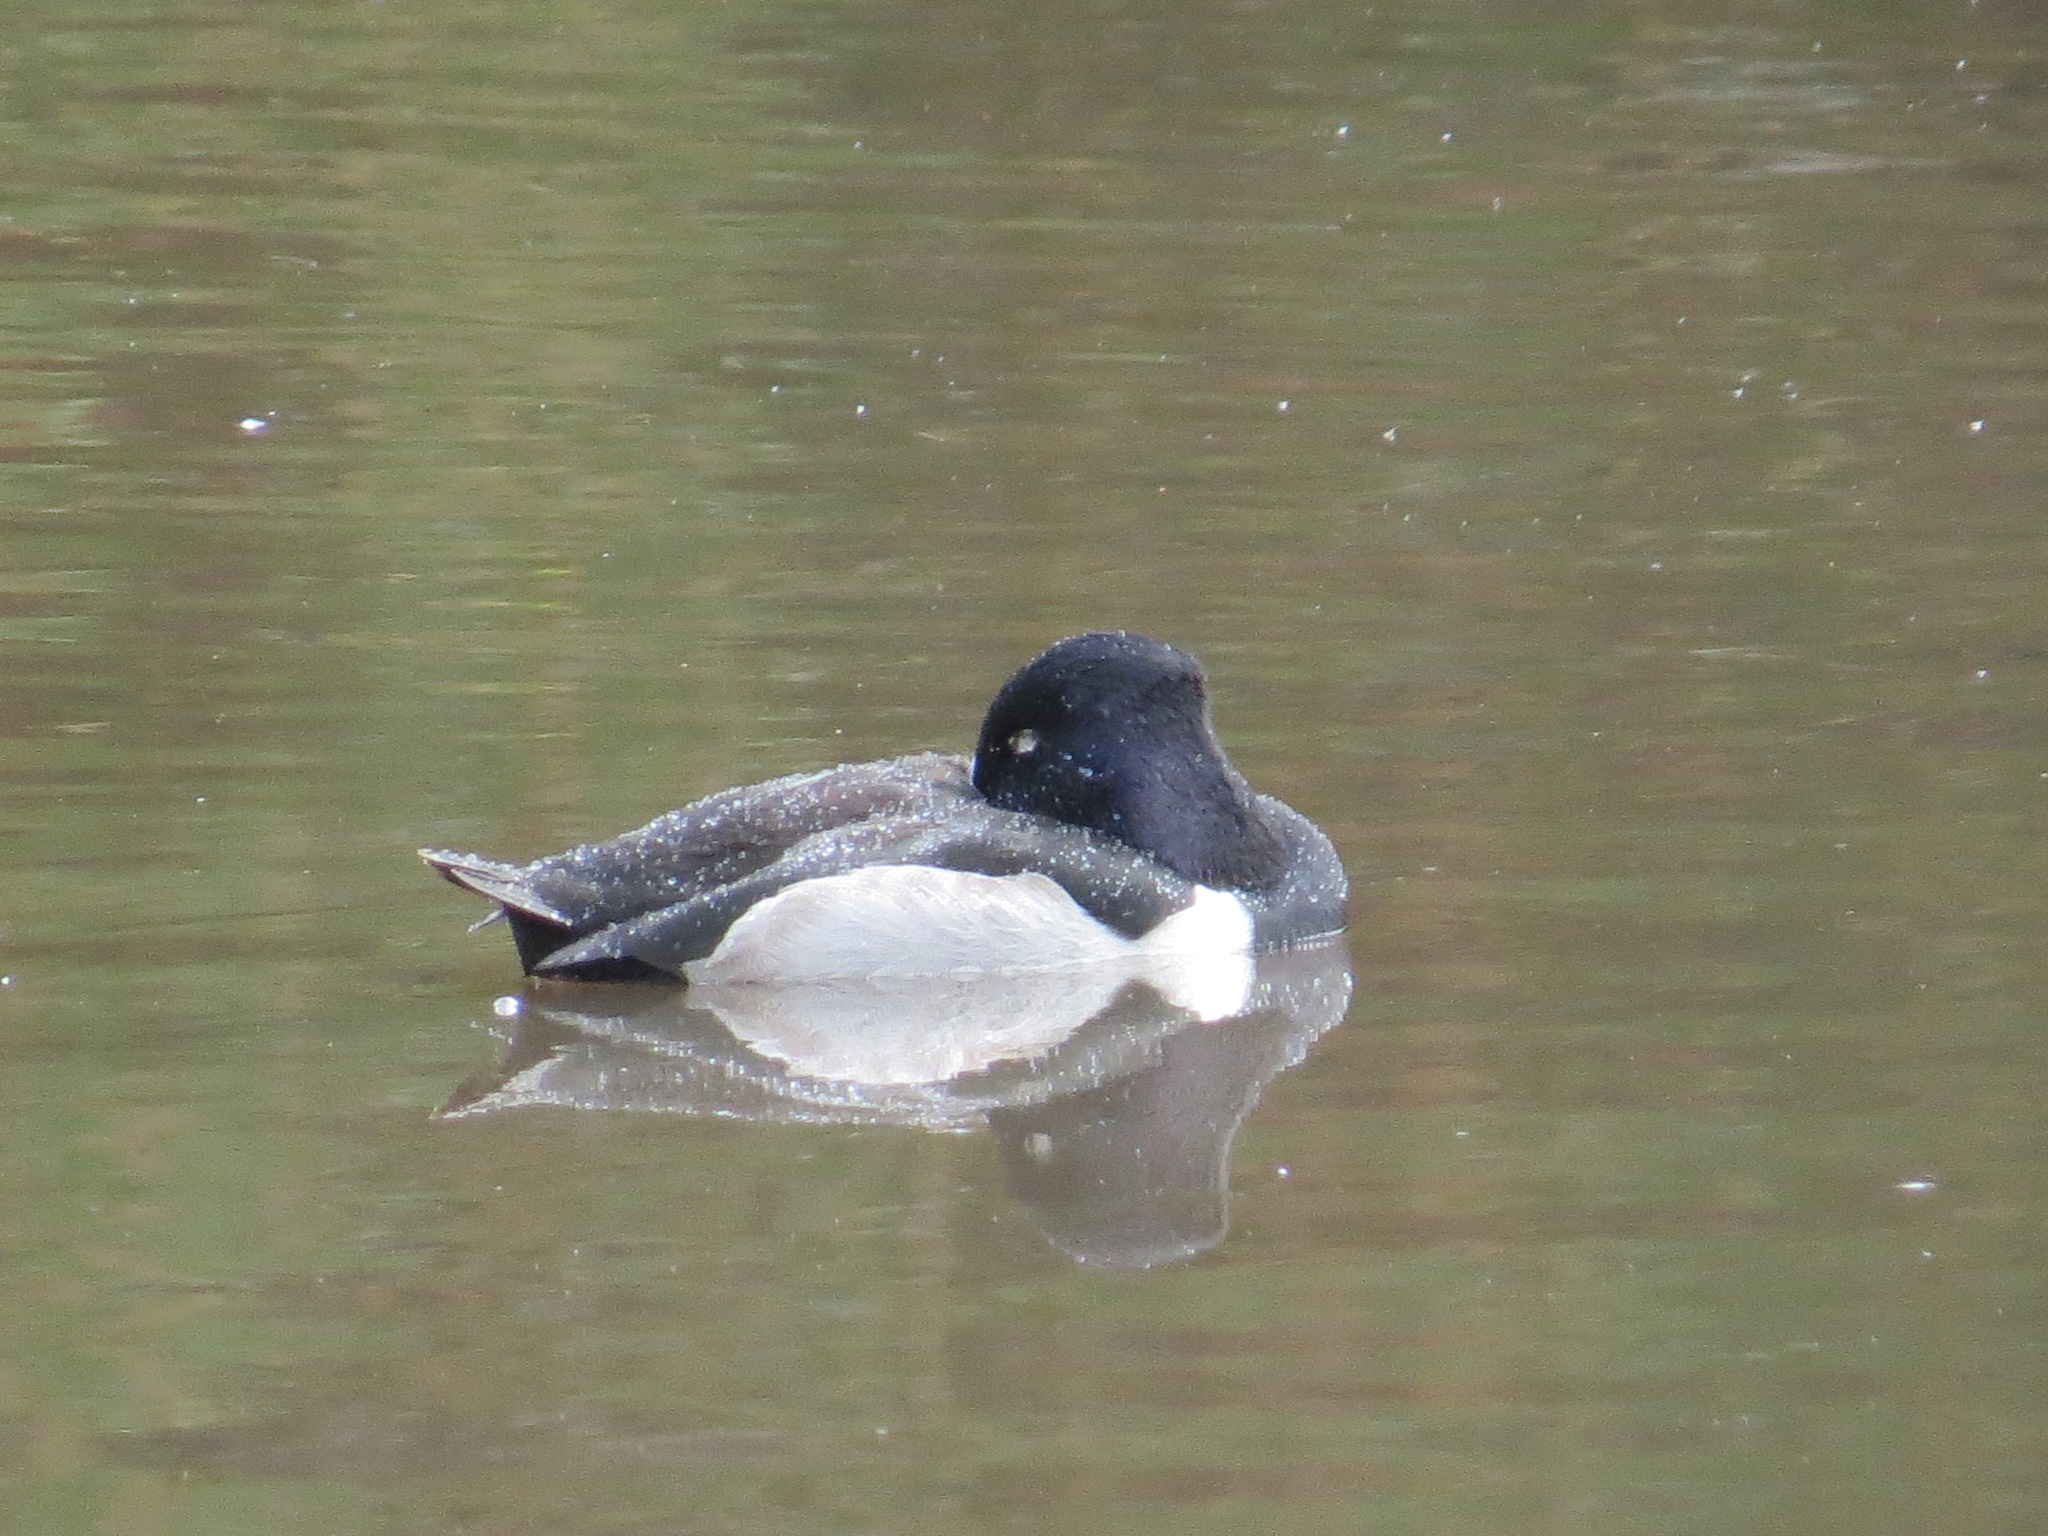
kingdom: Animalia
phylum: Chordata
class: Aves
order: Anseriformes
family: Anatidae
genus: Aythya
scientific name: Aythya collaris
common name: Ring-necked duck
